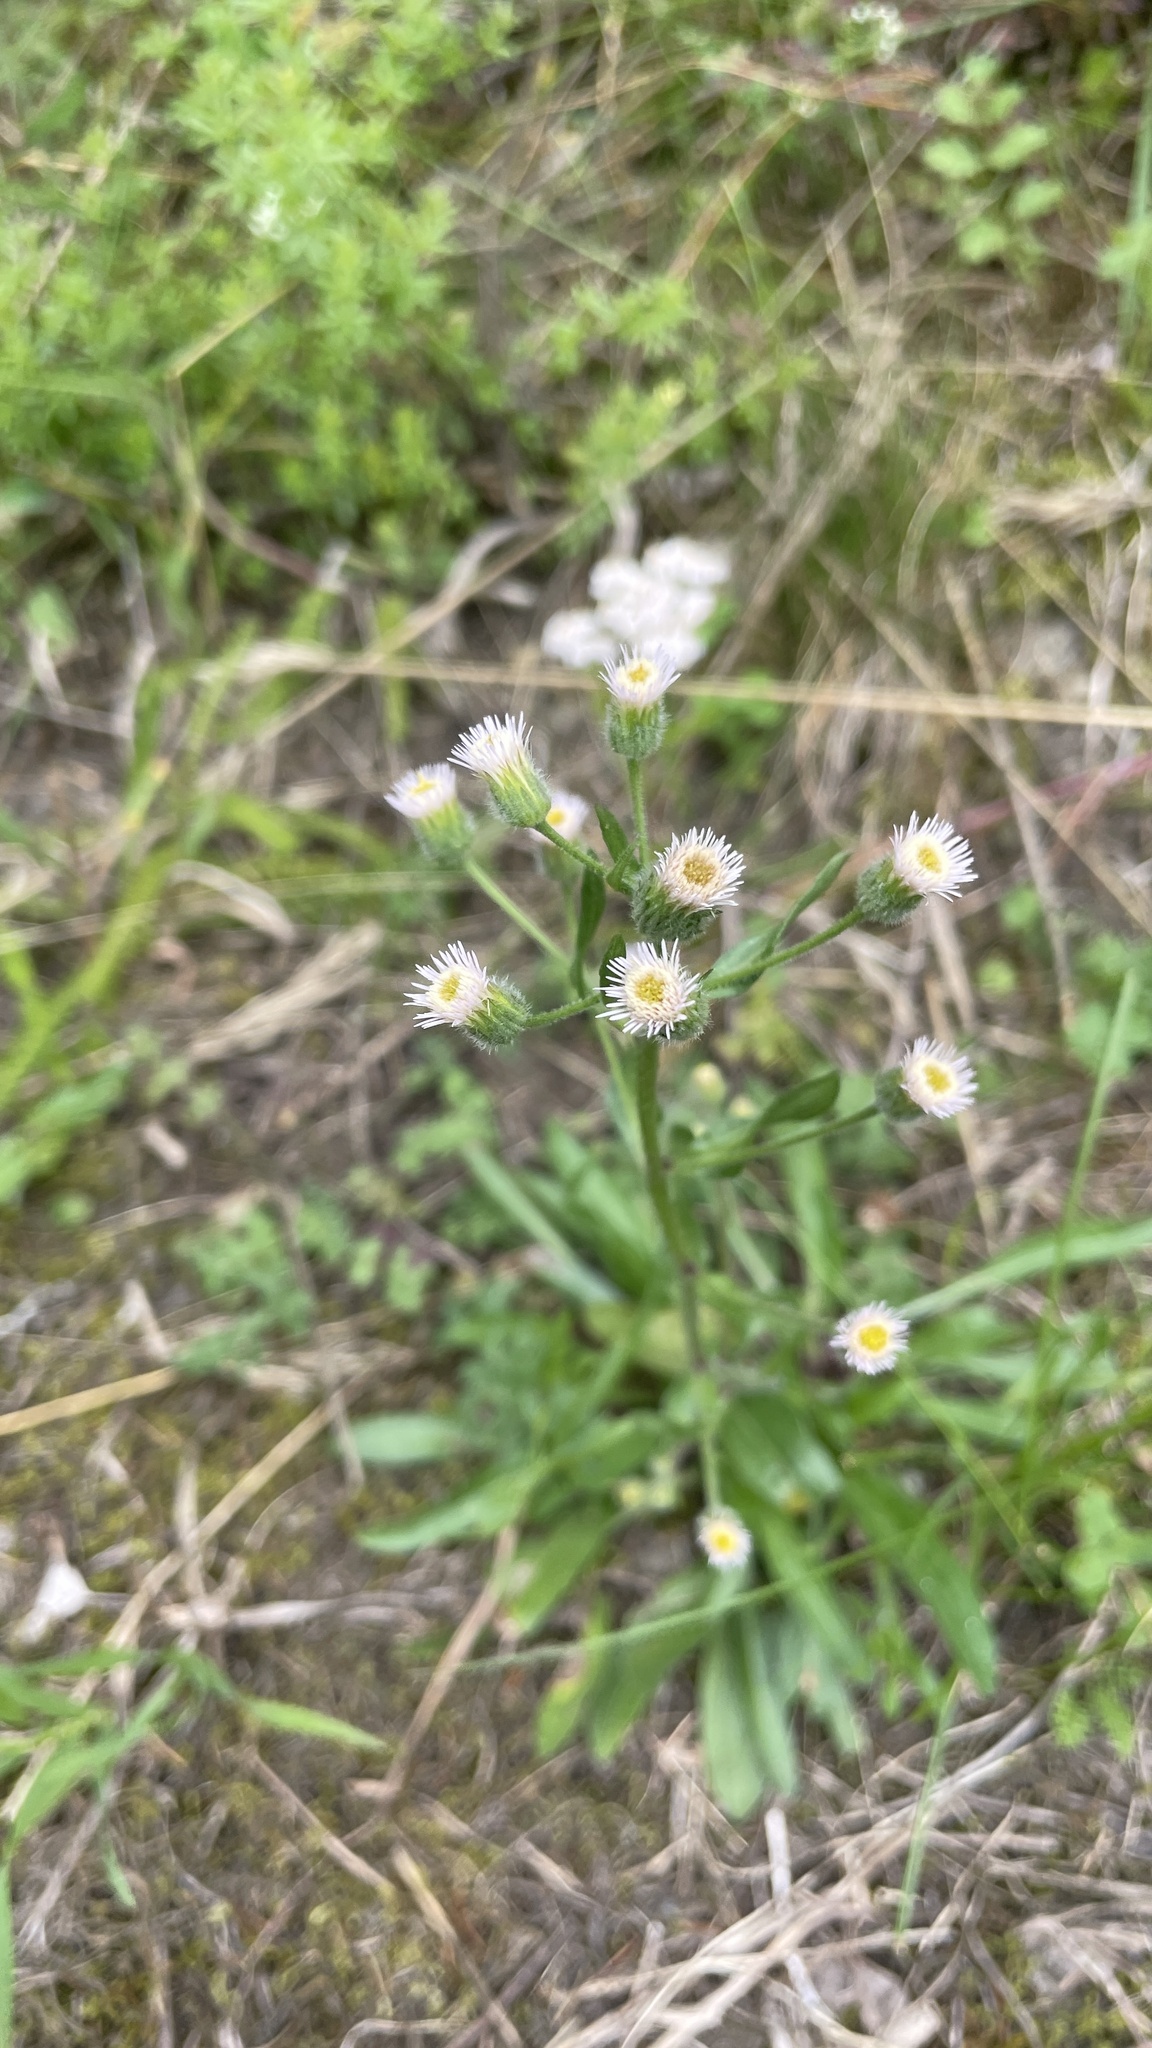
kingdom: Plantae
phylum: Tracheophyta
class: Magnoliopsida
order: Asterales
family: Asteraceae
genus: Erigeron
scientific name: Erigeron acris
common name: Blue fleabane
